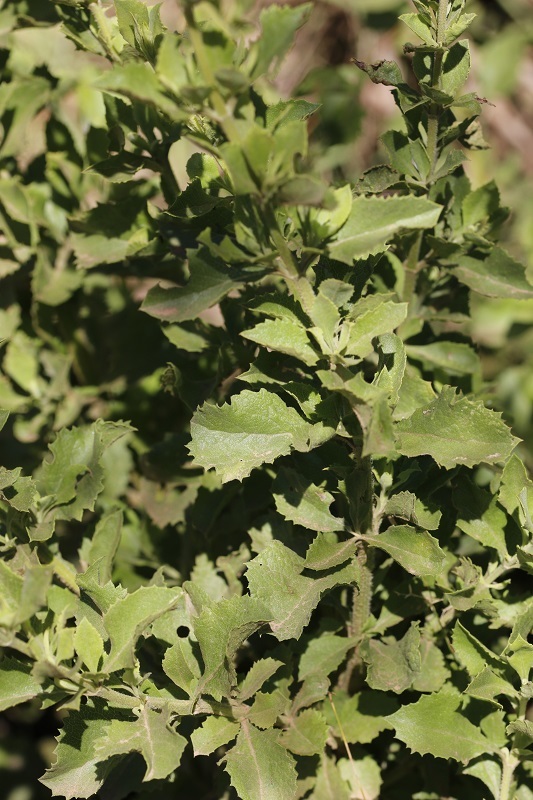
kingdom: Plantae
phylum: Tracheophyta
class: Magnoliopsida
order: Lamiales
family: Lamiaceae
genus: Salvia
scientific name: Salvia chamelaeagnea
